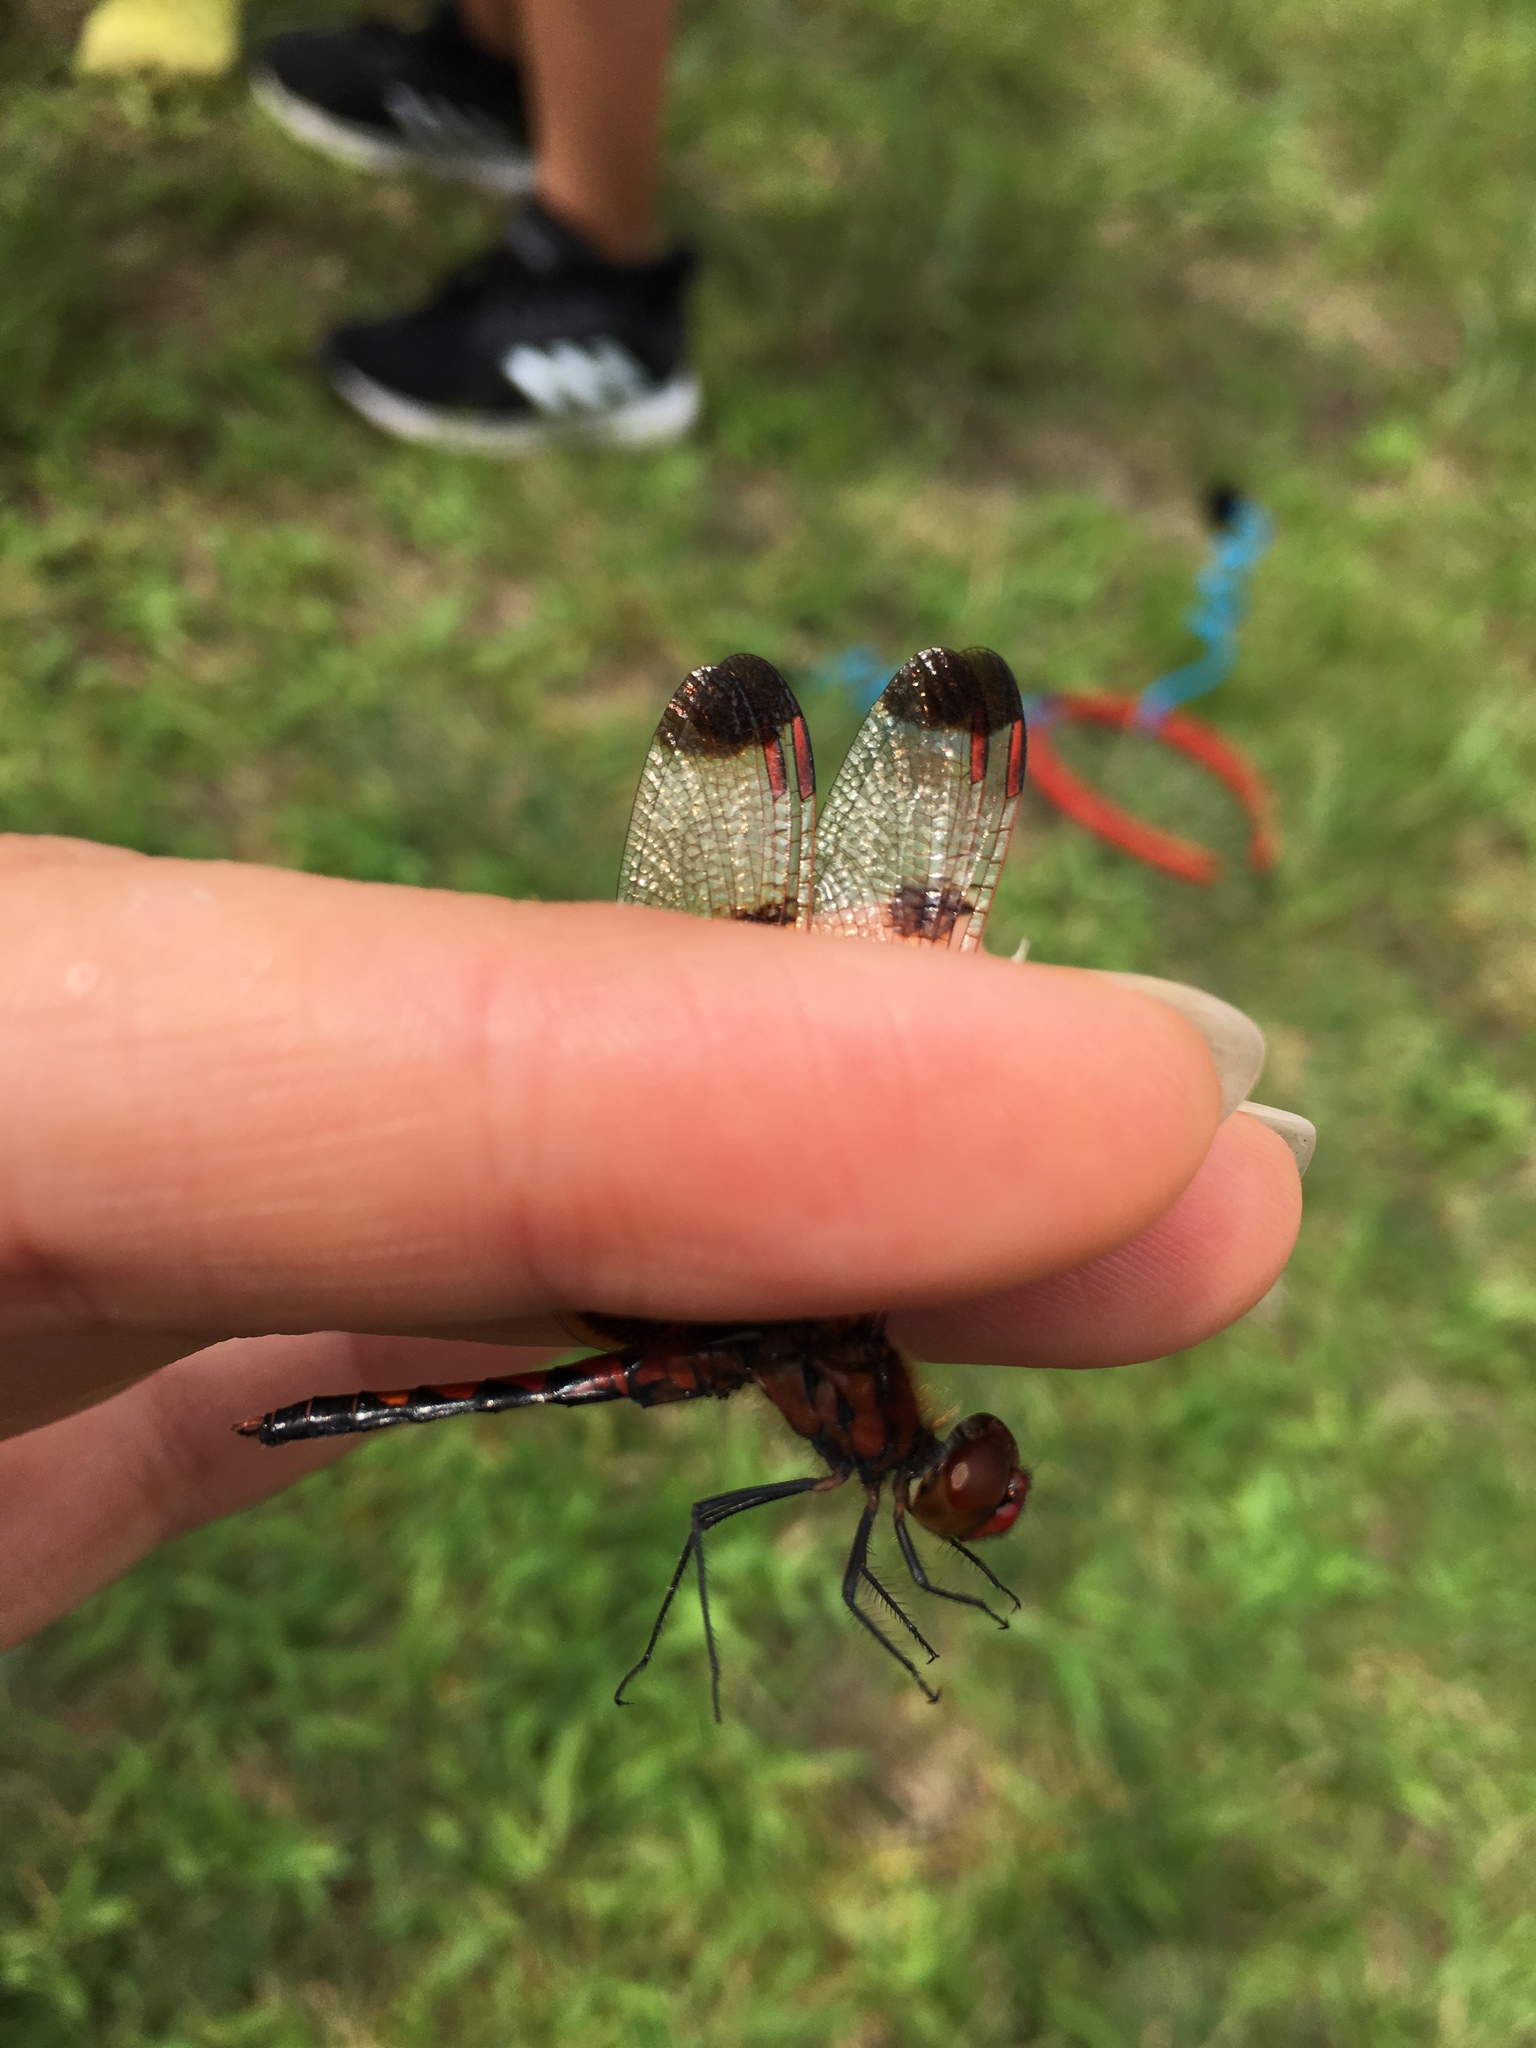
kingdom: Animalia
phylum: Arthropoda
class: Insecta
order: Odonata
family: Libellulidae
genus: Celithemis
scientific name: Celithemis elisa
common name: Calico pennant
